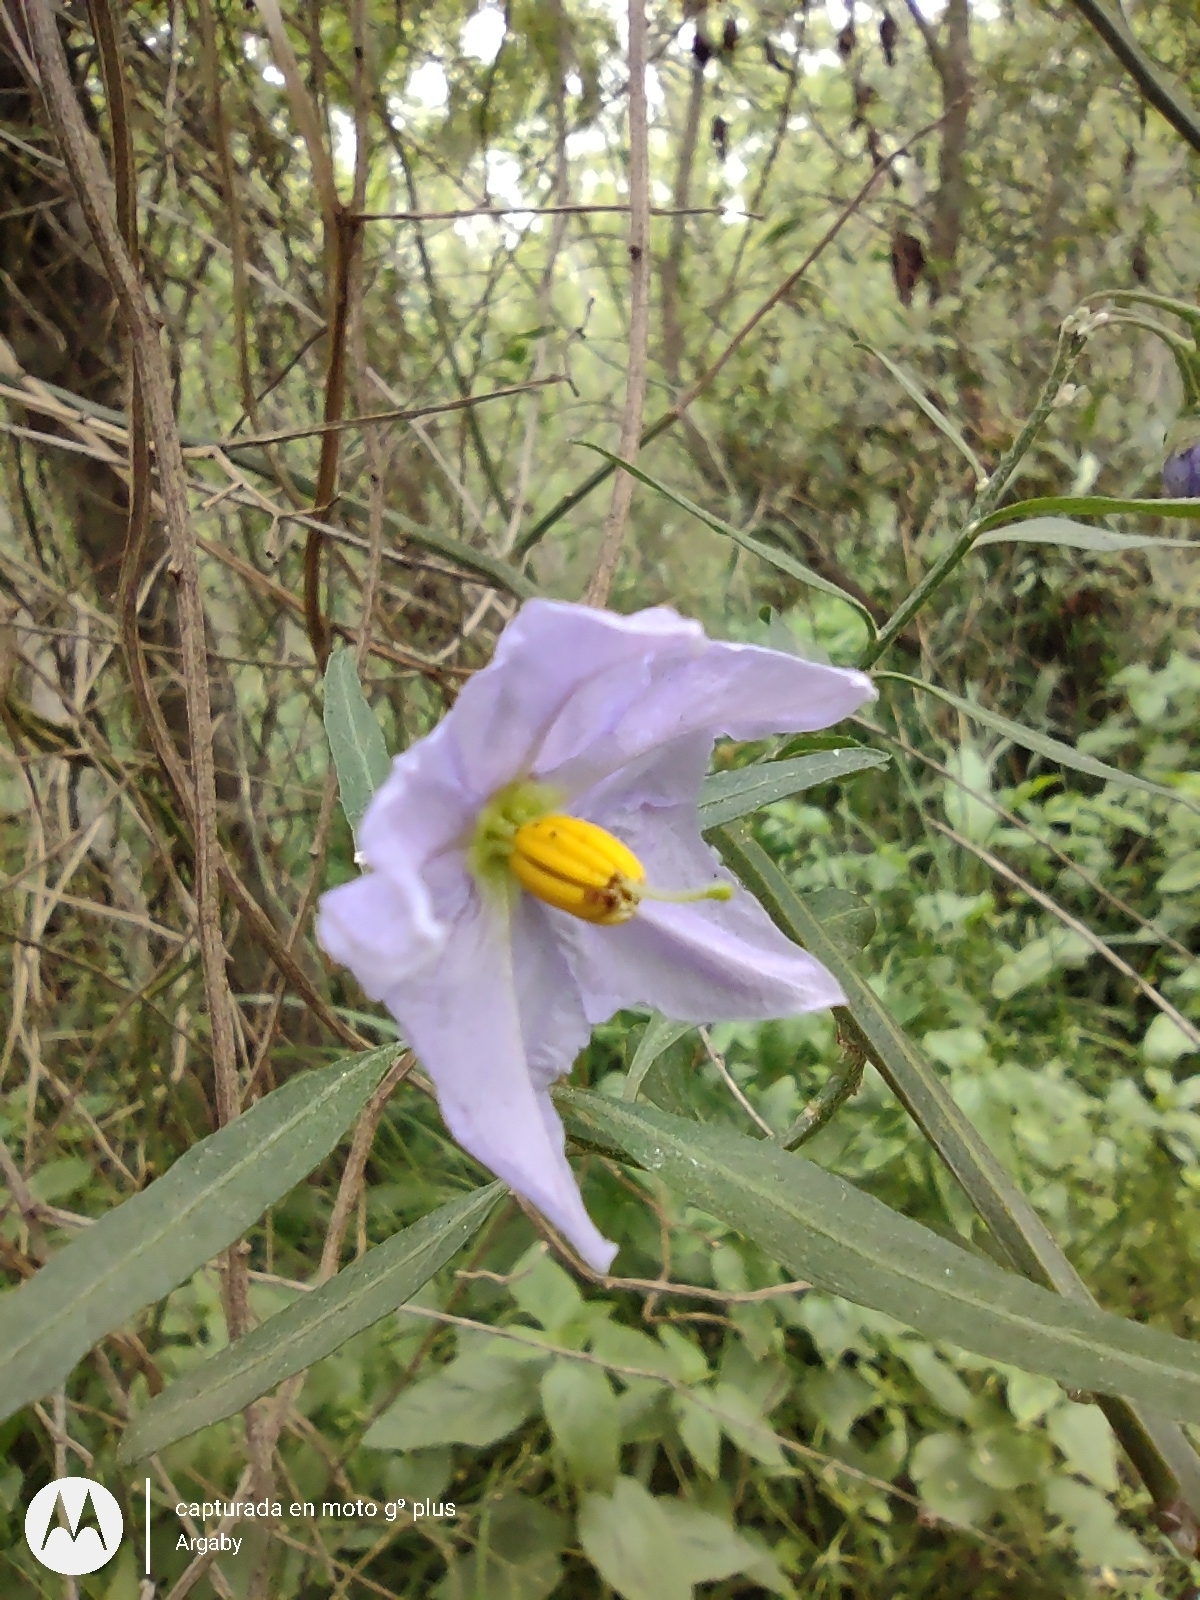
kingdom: Plantae
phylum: Tracheophyta
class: Magnoliopsida
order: Solanales
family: Solanaceae
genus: Solanum
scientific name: Solanum amygdalifolium
